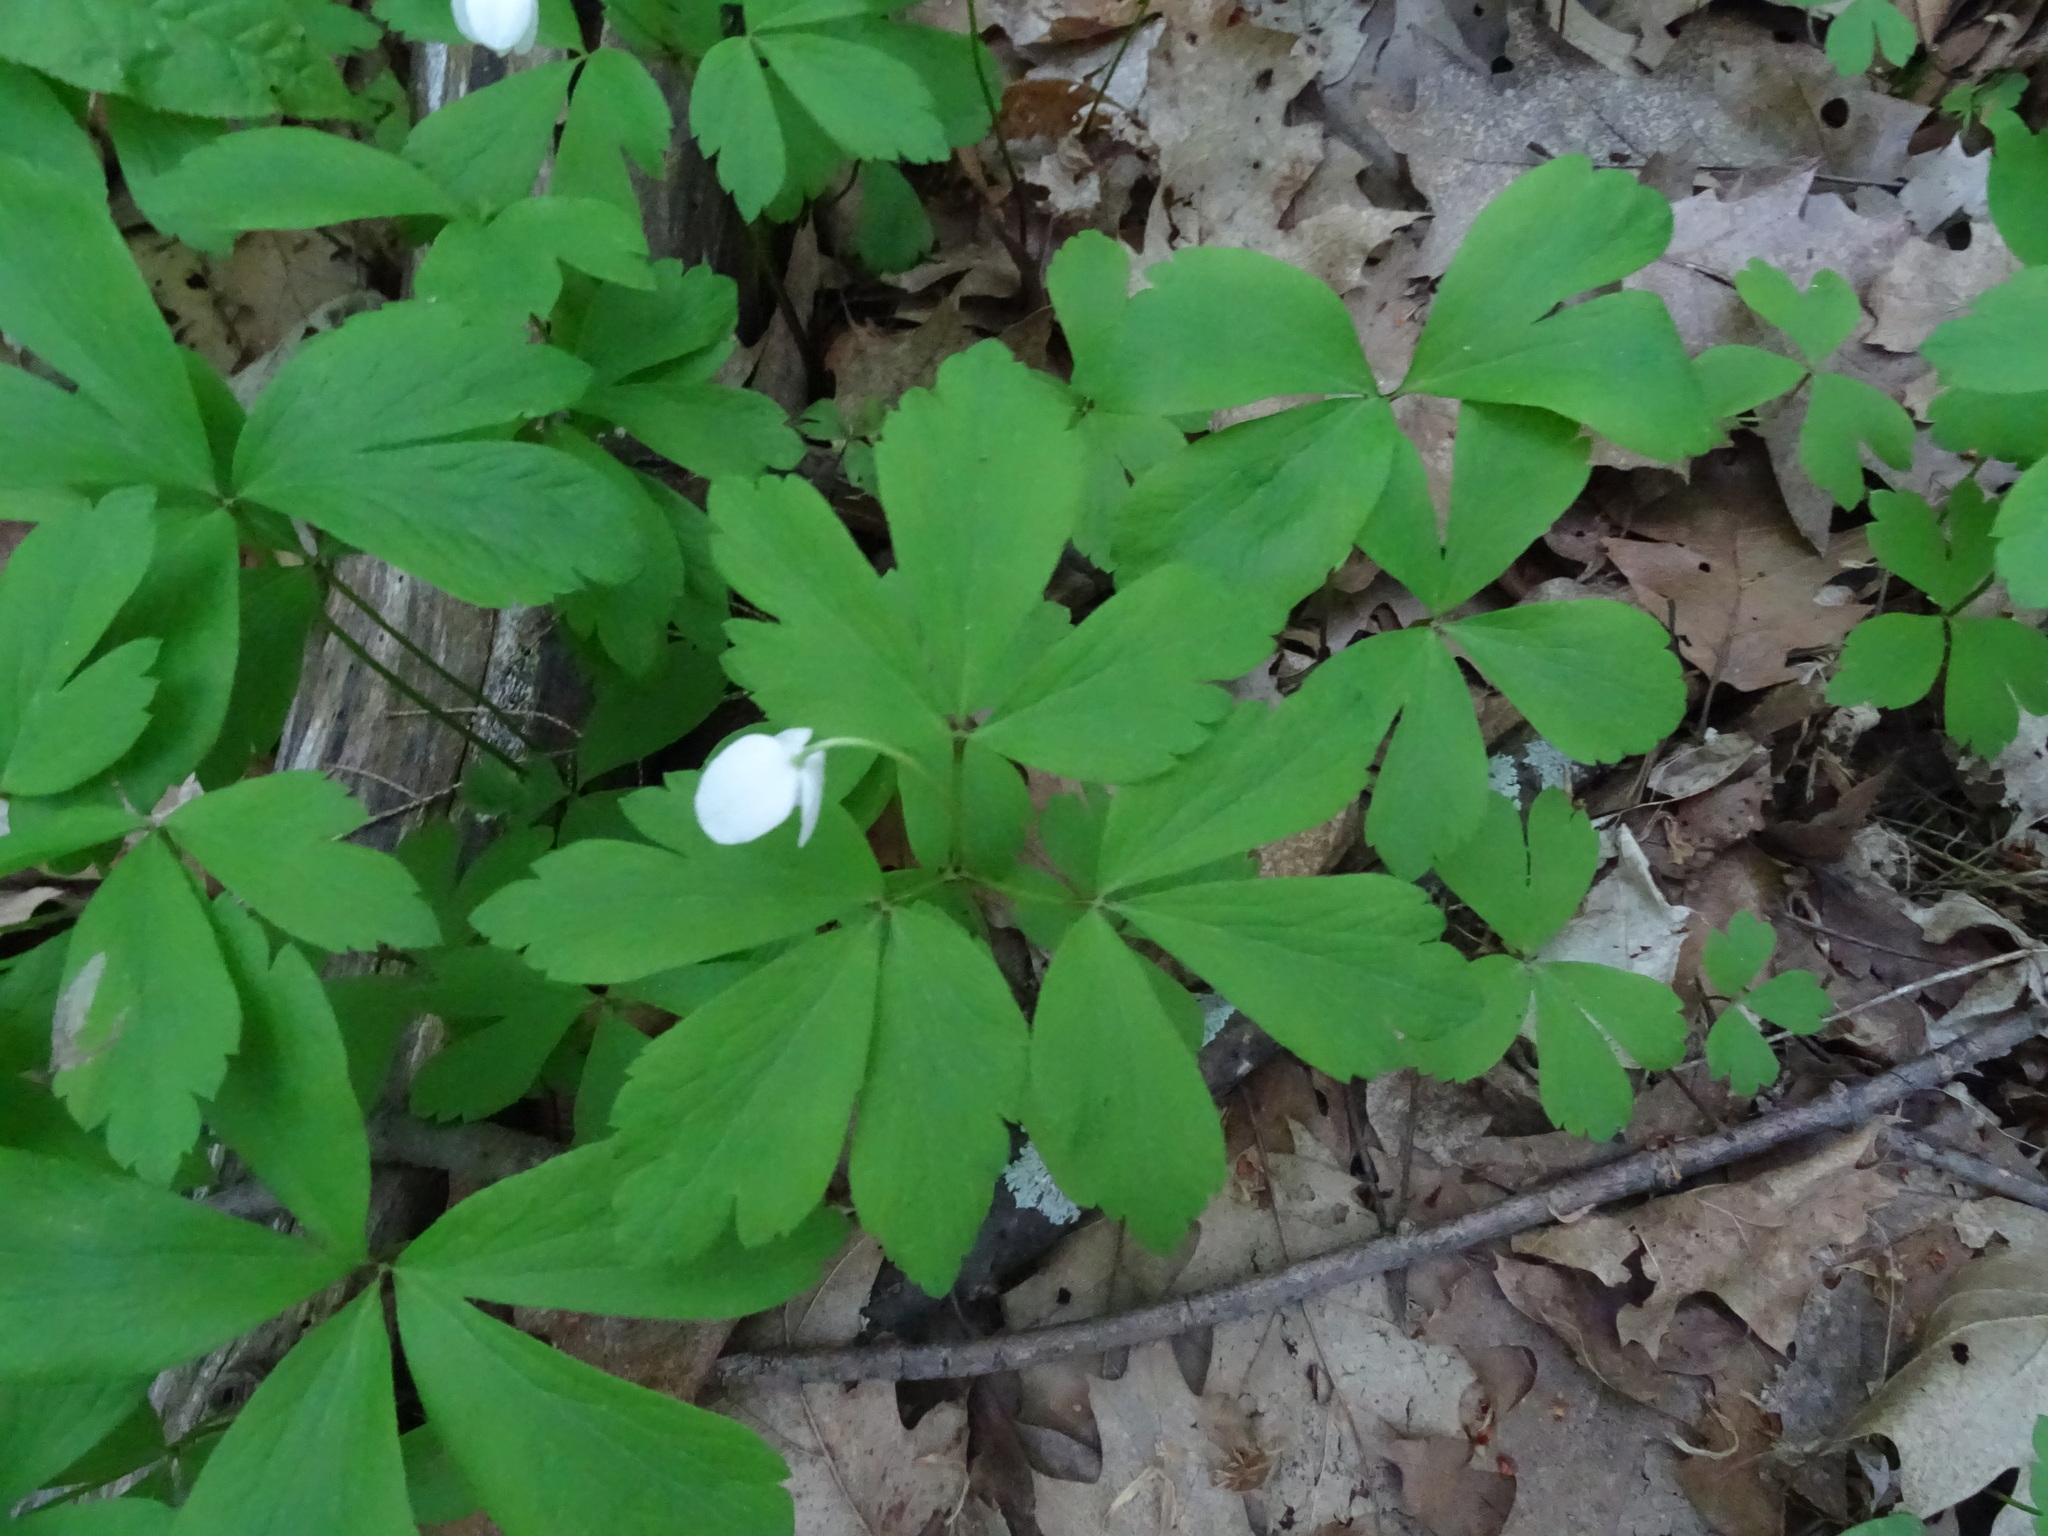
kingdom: Plantae
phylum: Tracheophyta
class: Magnoliopsida
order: Ranunculales
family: Ranunculaceae
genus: Anemone
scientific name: Anemone quinquefolia
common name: Wood anemone
